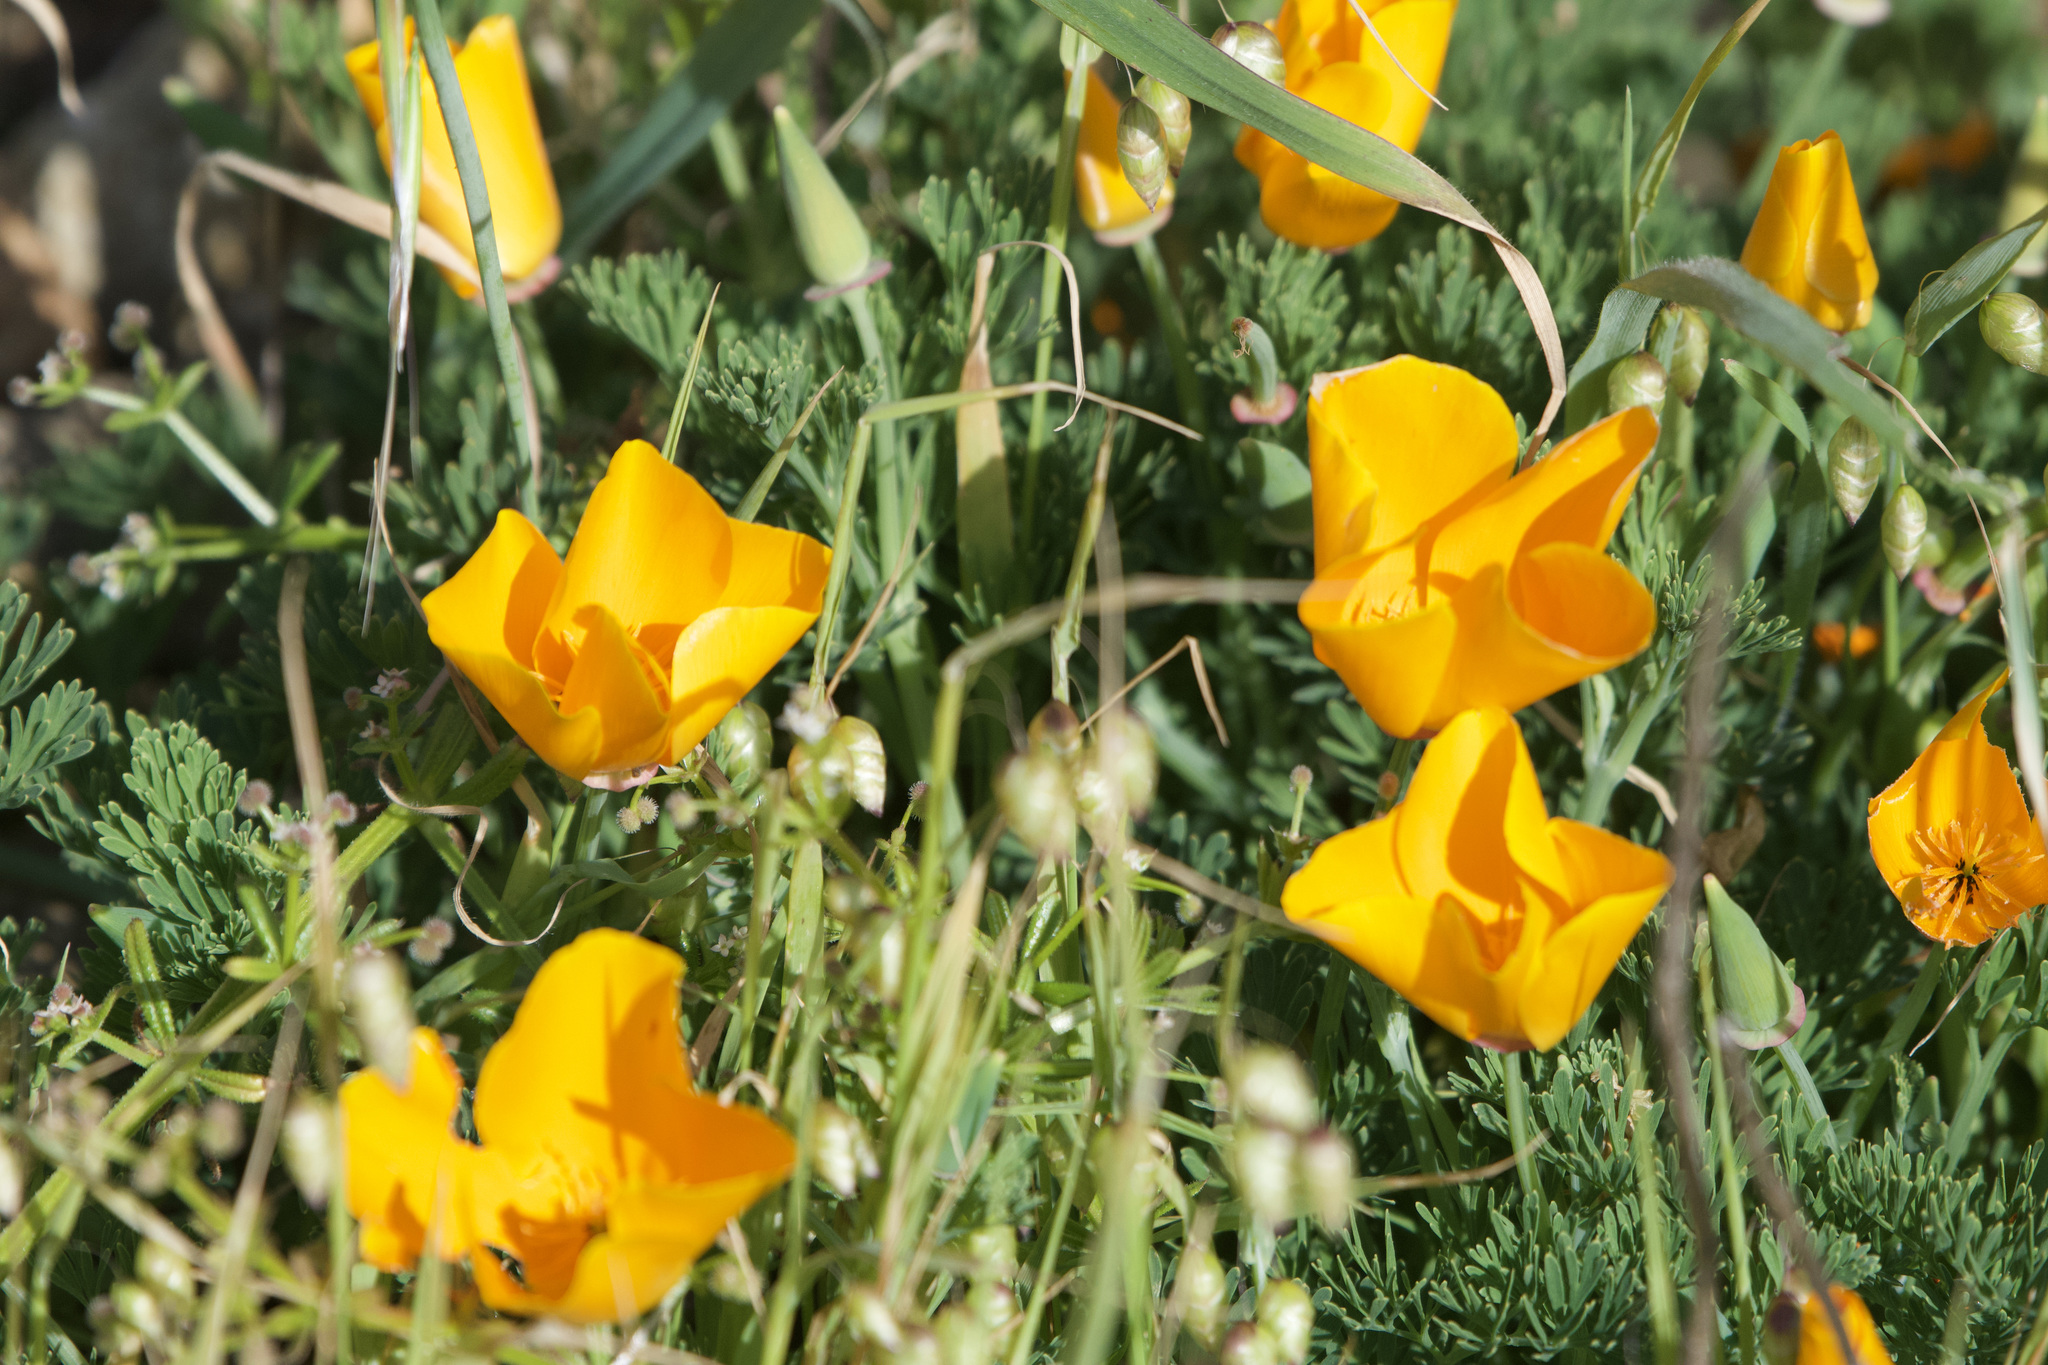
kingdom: Plantae
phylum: Tracheophyta
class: Magnoliopsida
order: Ranunculales
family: Papaveraceae
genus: Eschscholzia
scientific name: Eschscholzia californica
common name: California poppy
